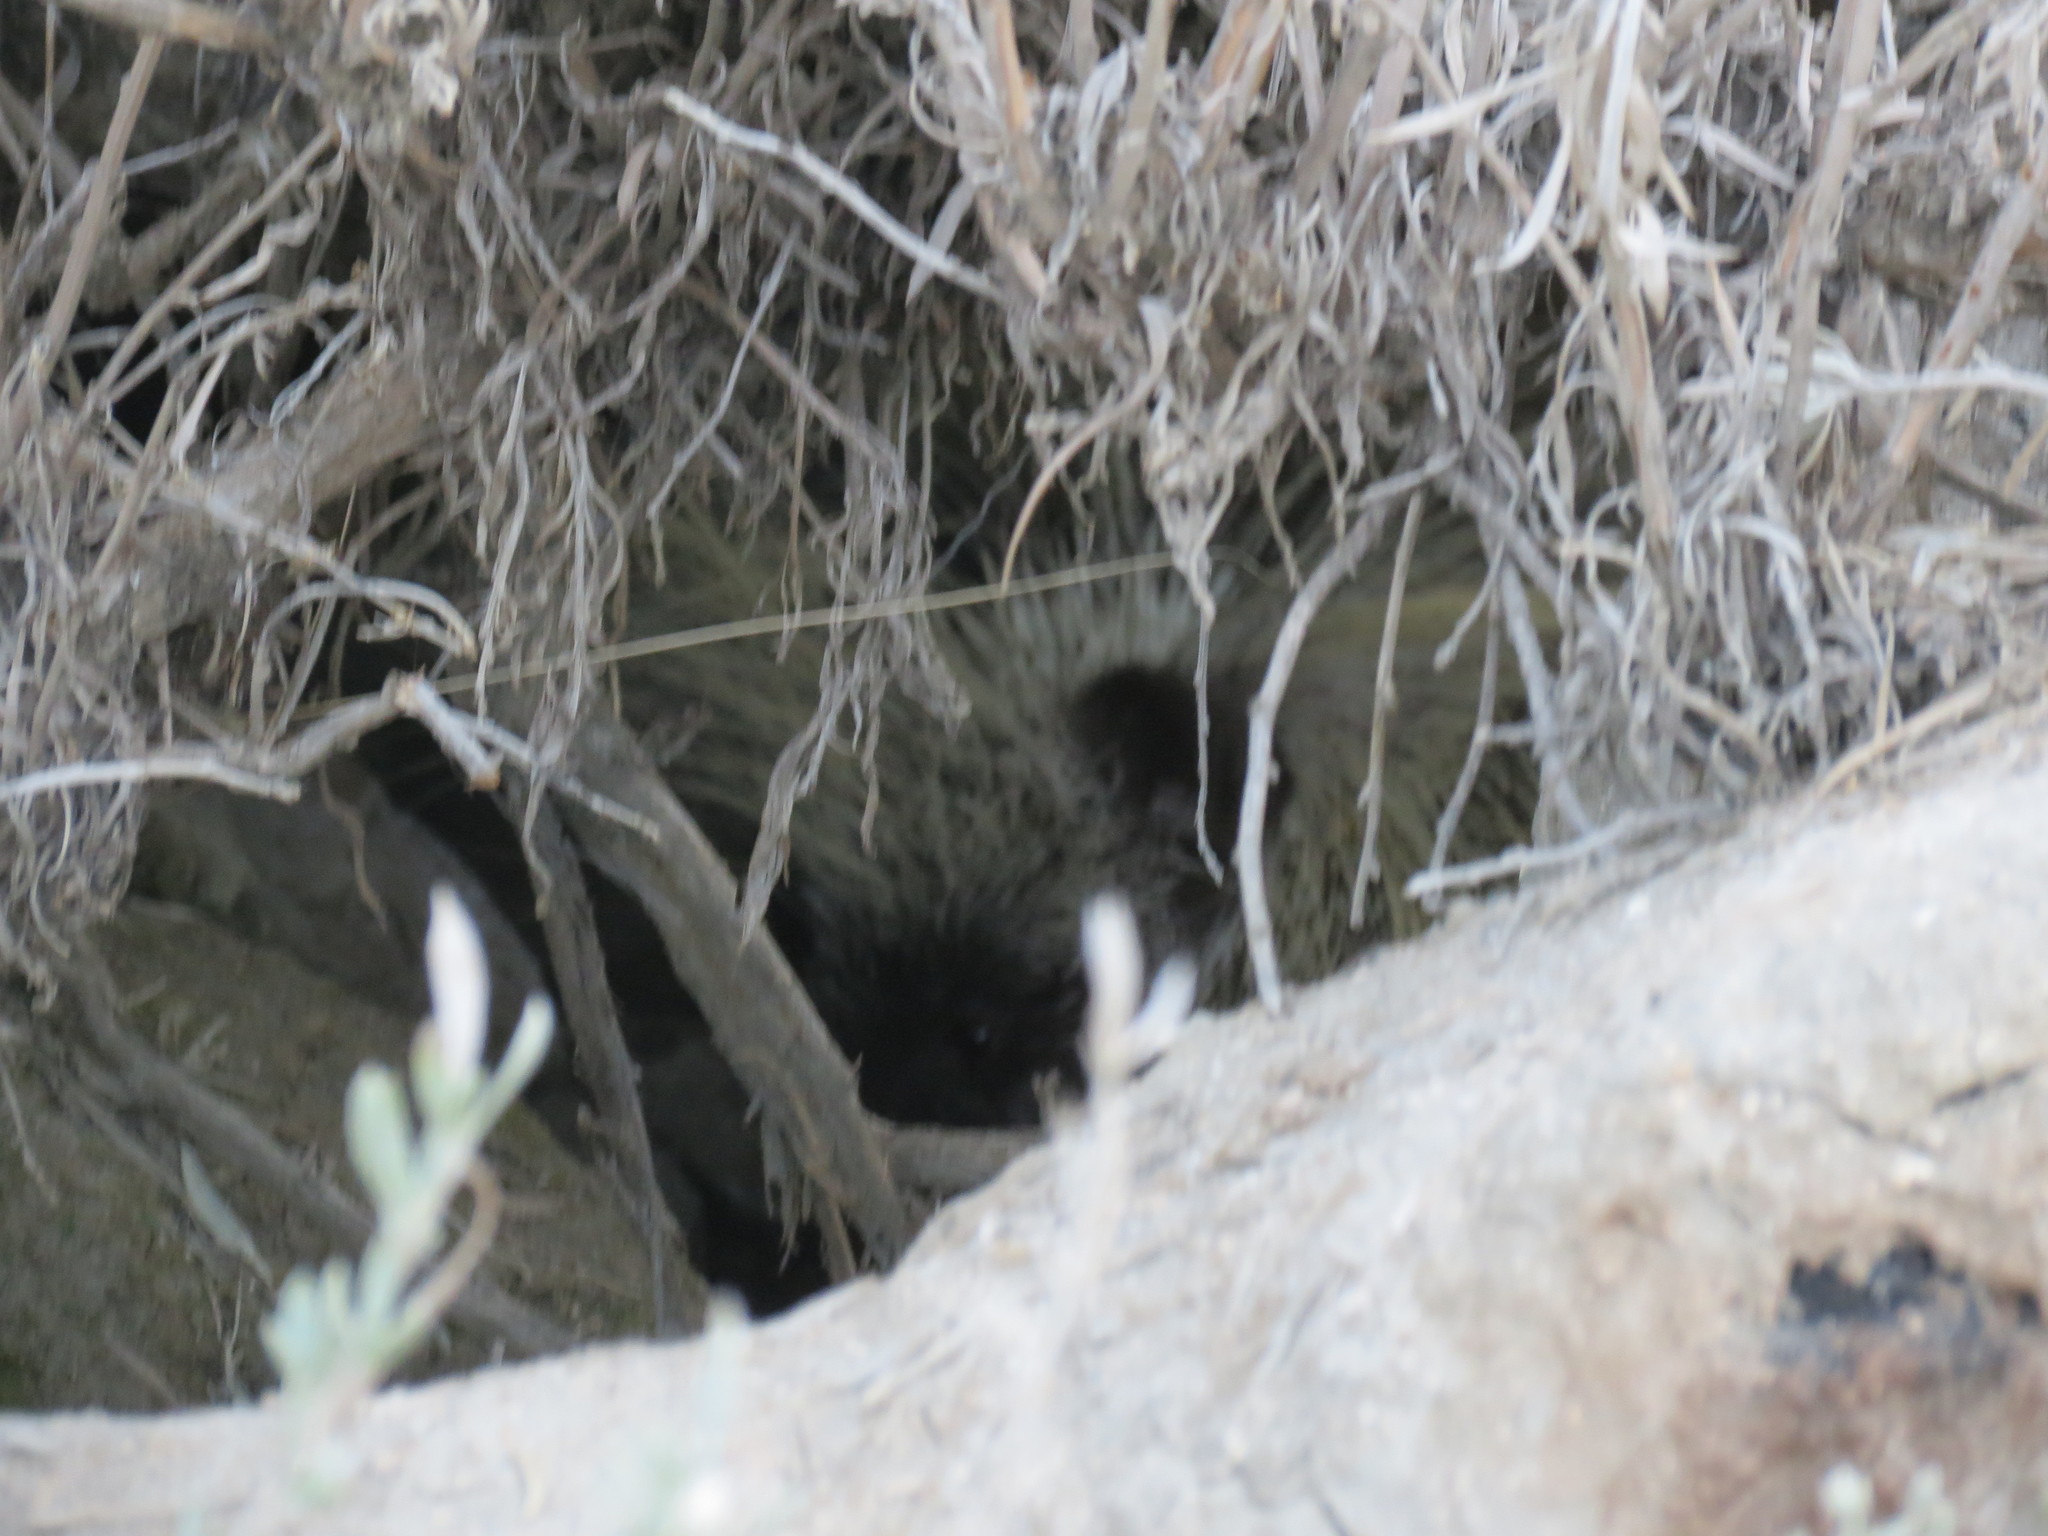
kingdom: Animalia
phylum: Chordata
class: Mammalia
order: Rodentia
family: Erethizontidae
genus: Erethizon
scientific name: Erethizon dorsatus
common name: North american porcupine
